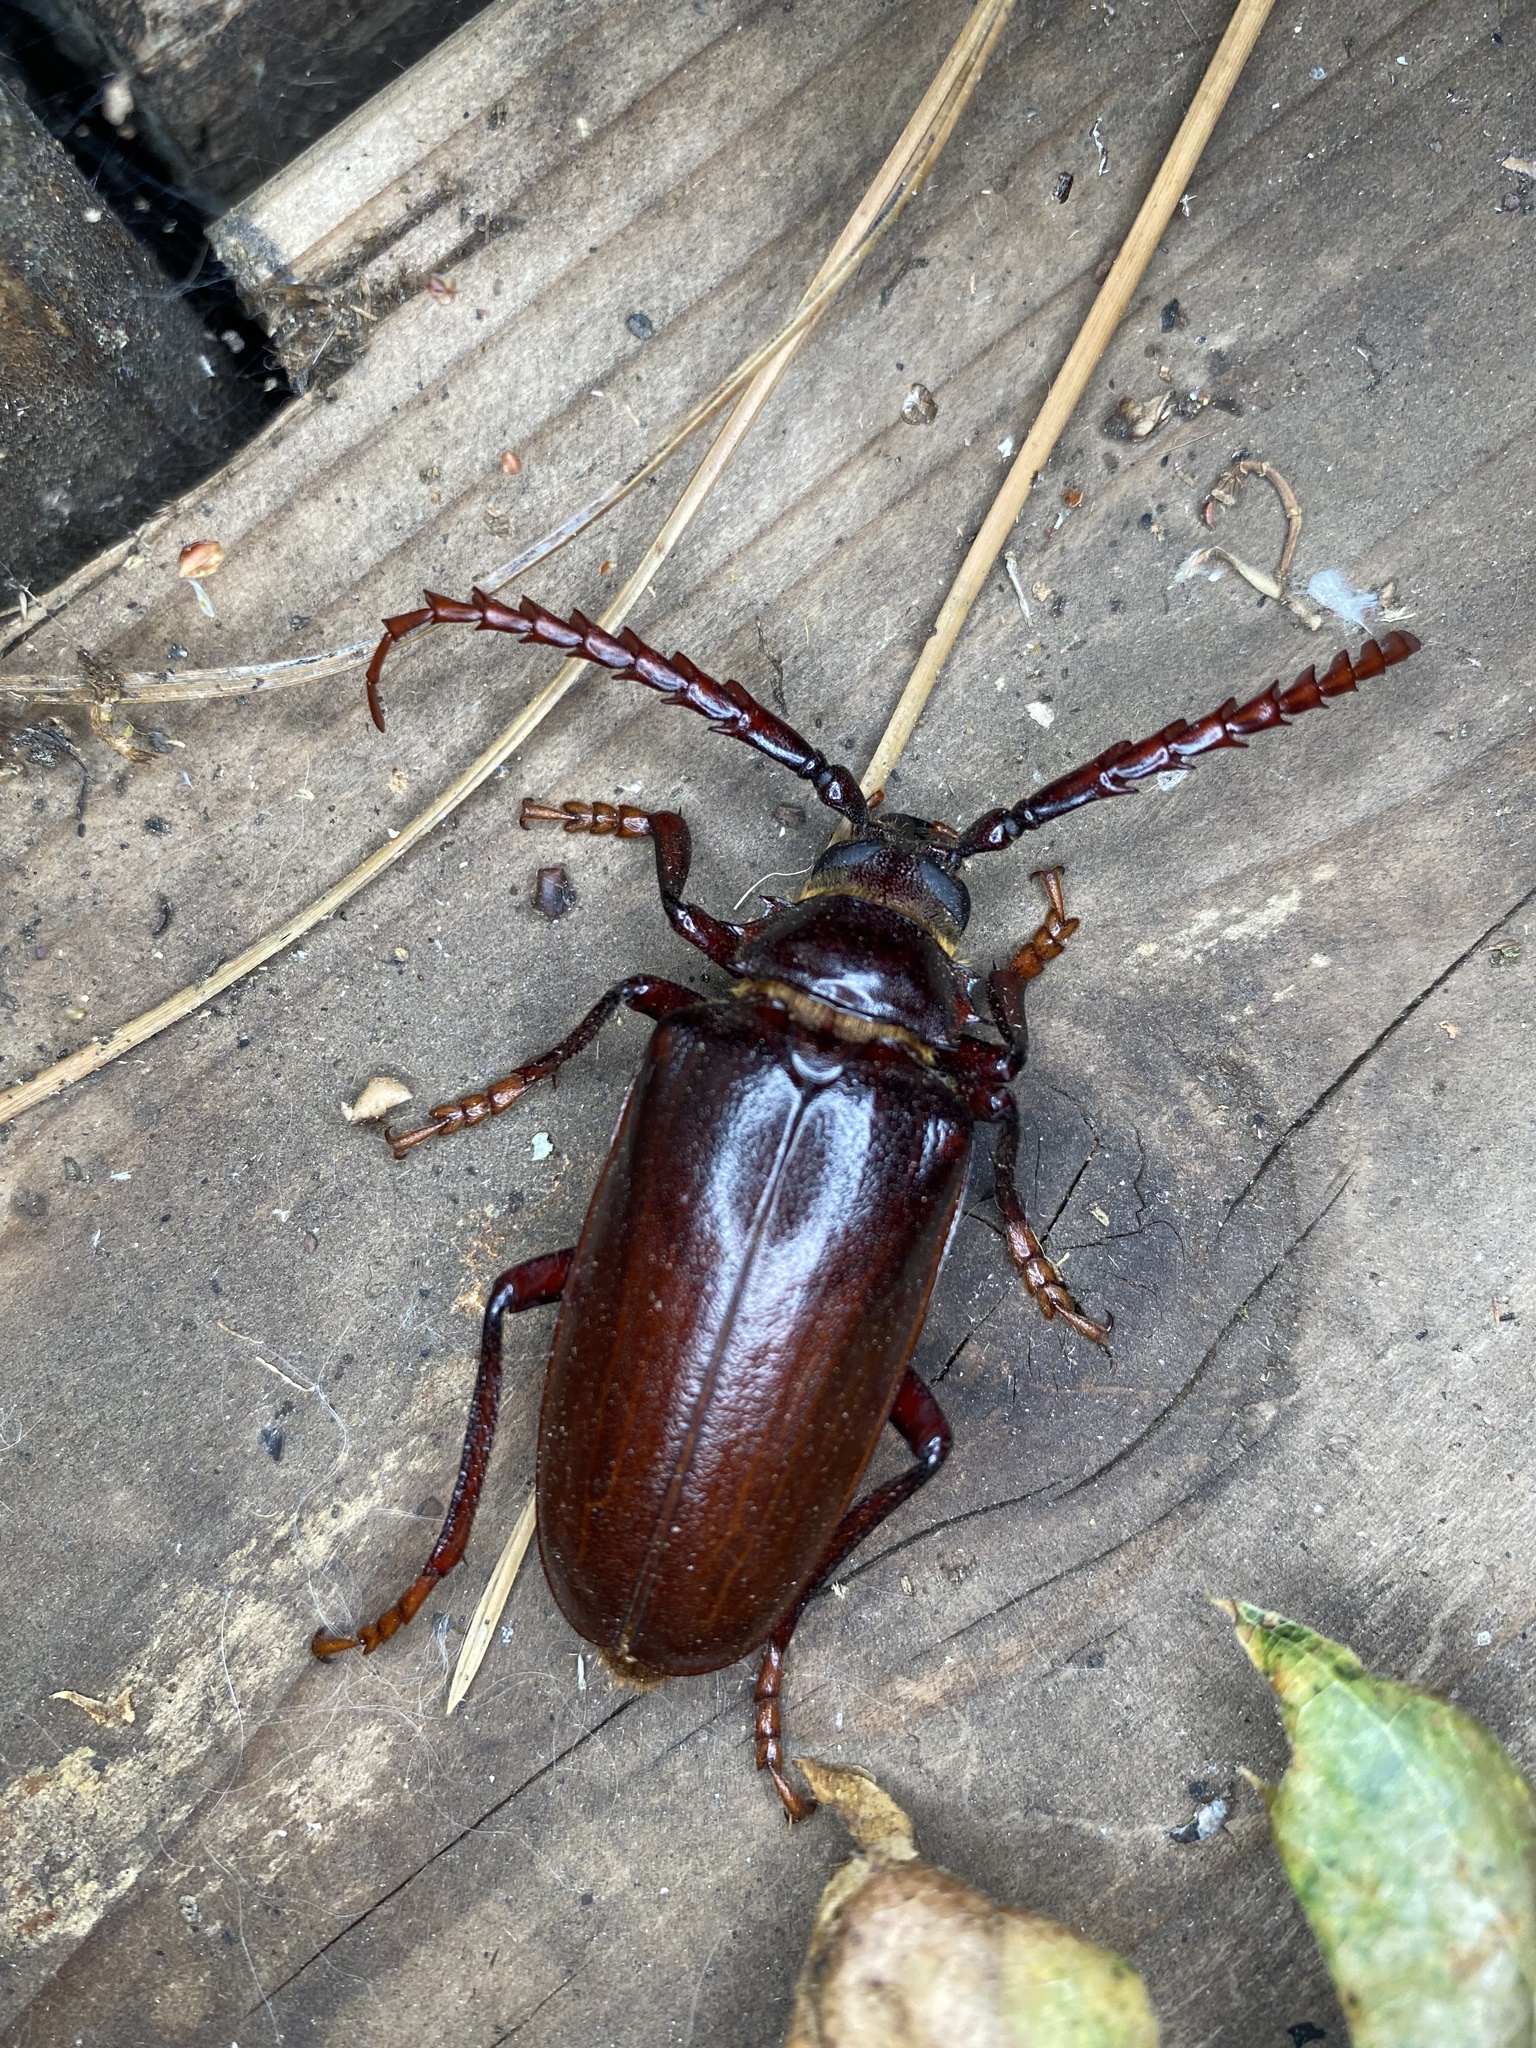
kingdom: Animalia
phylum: Arthropoda
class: Insecta
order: Coleoptera
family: Cerambycidae
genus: Prionus
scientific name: Prionus californicus
